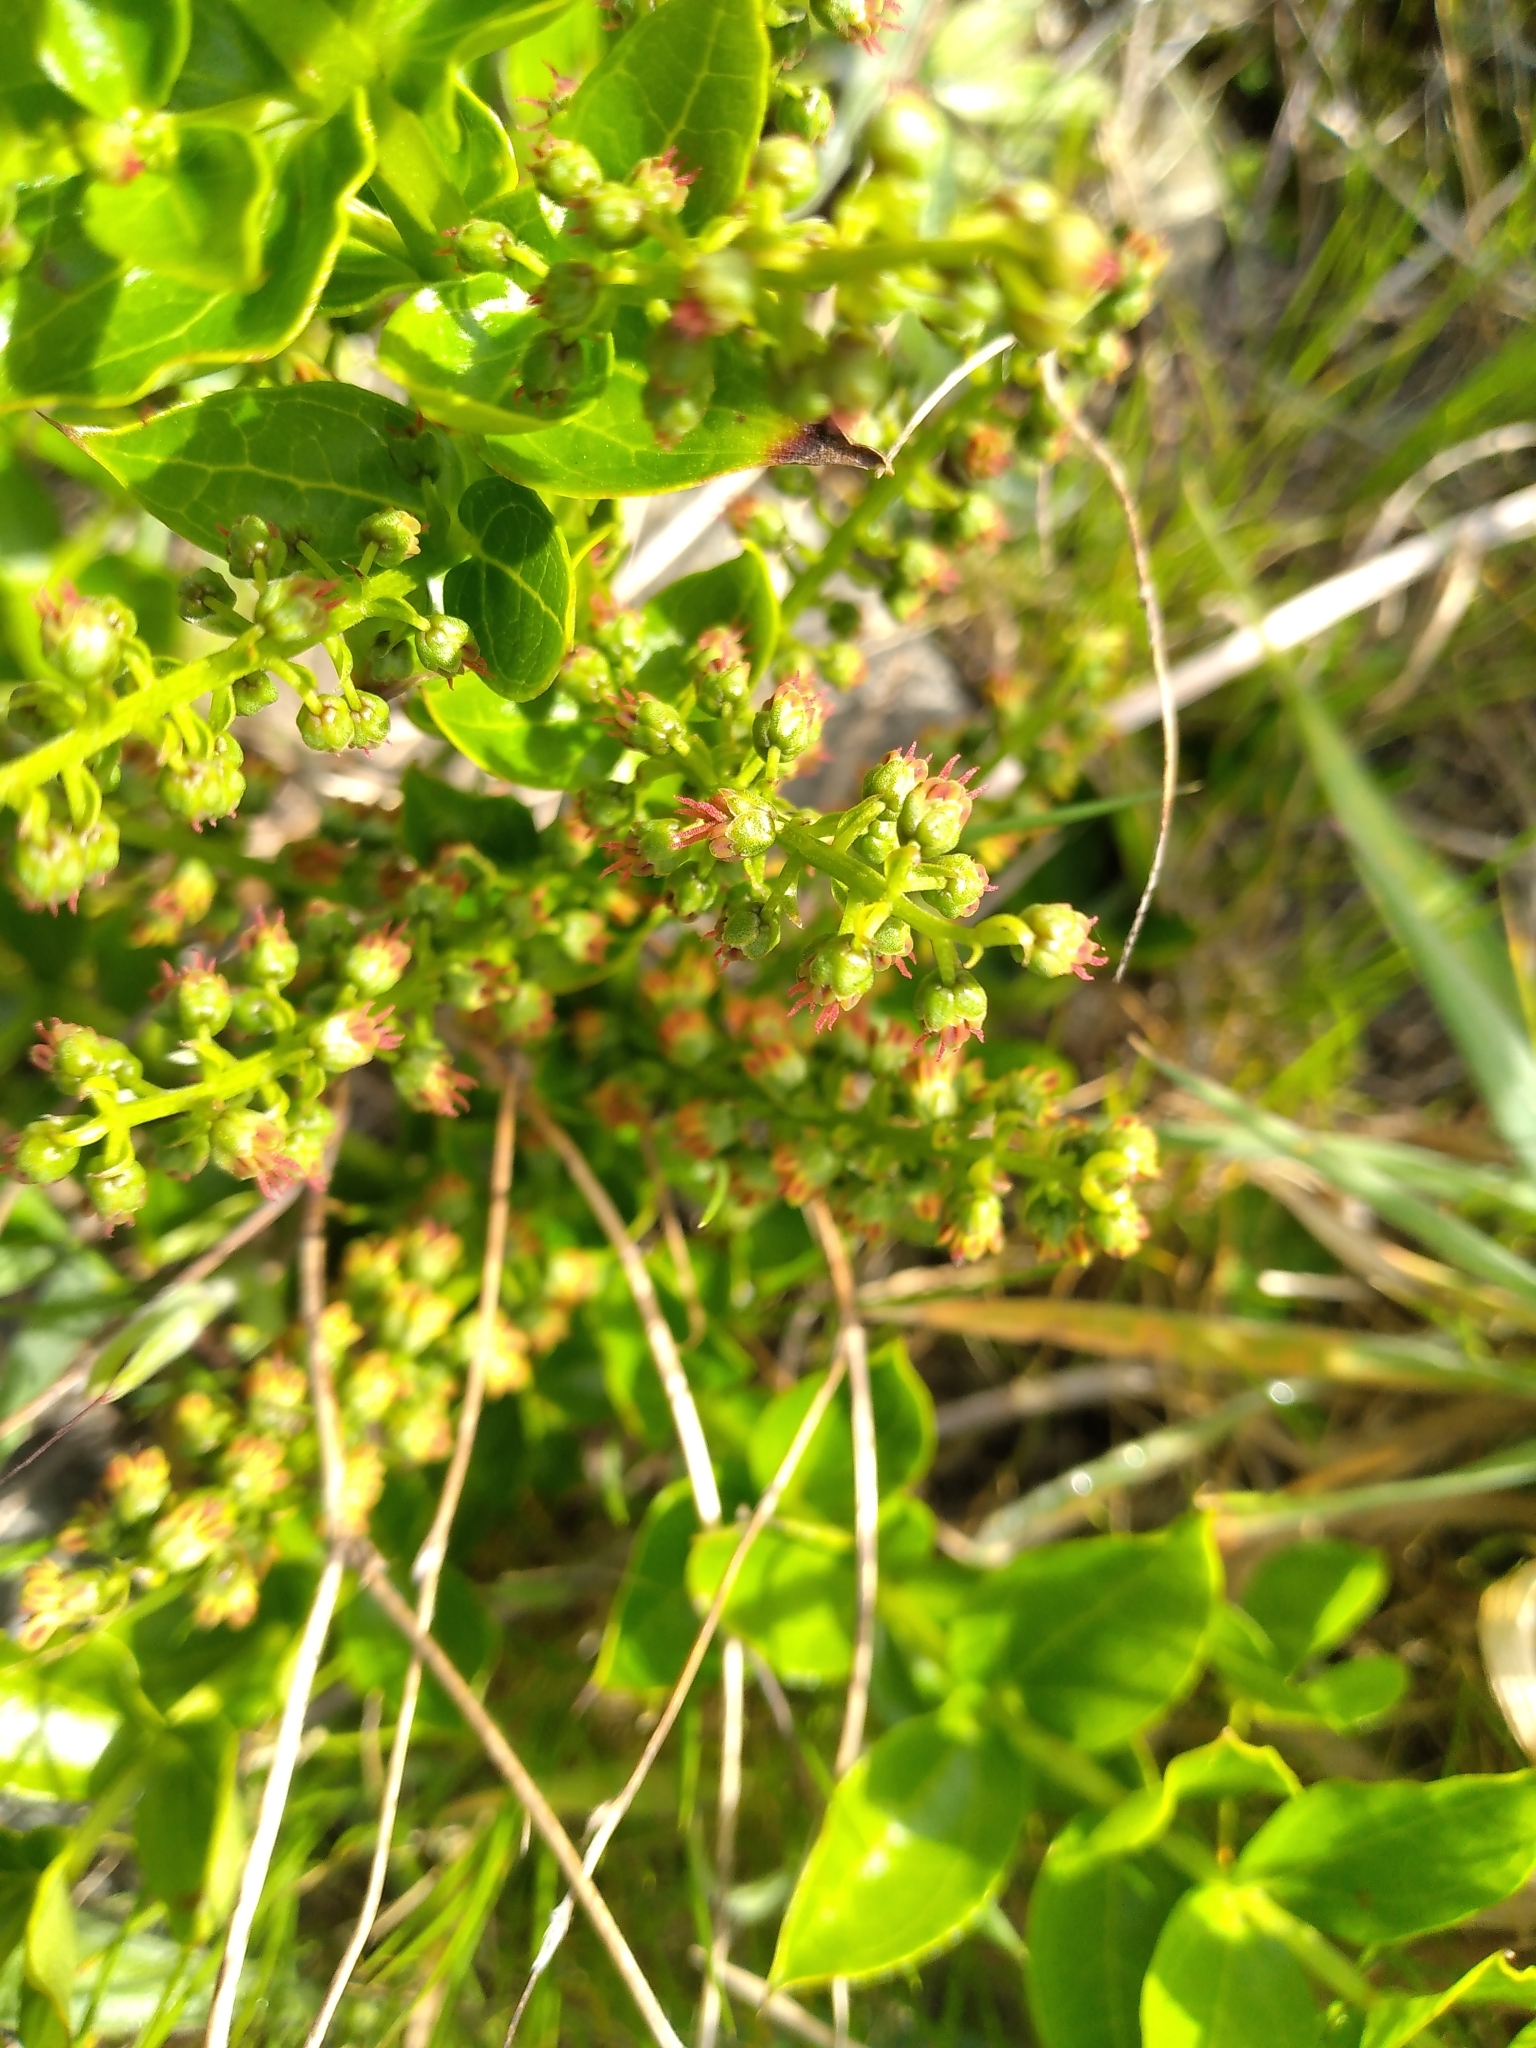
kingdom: Plantae
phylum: Tracheophyta
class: Magnoliopsida
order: Cucurbitales
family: Coriariaceae
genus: Coriaria
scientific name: Coriaria sarmentosa
